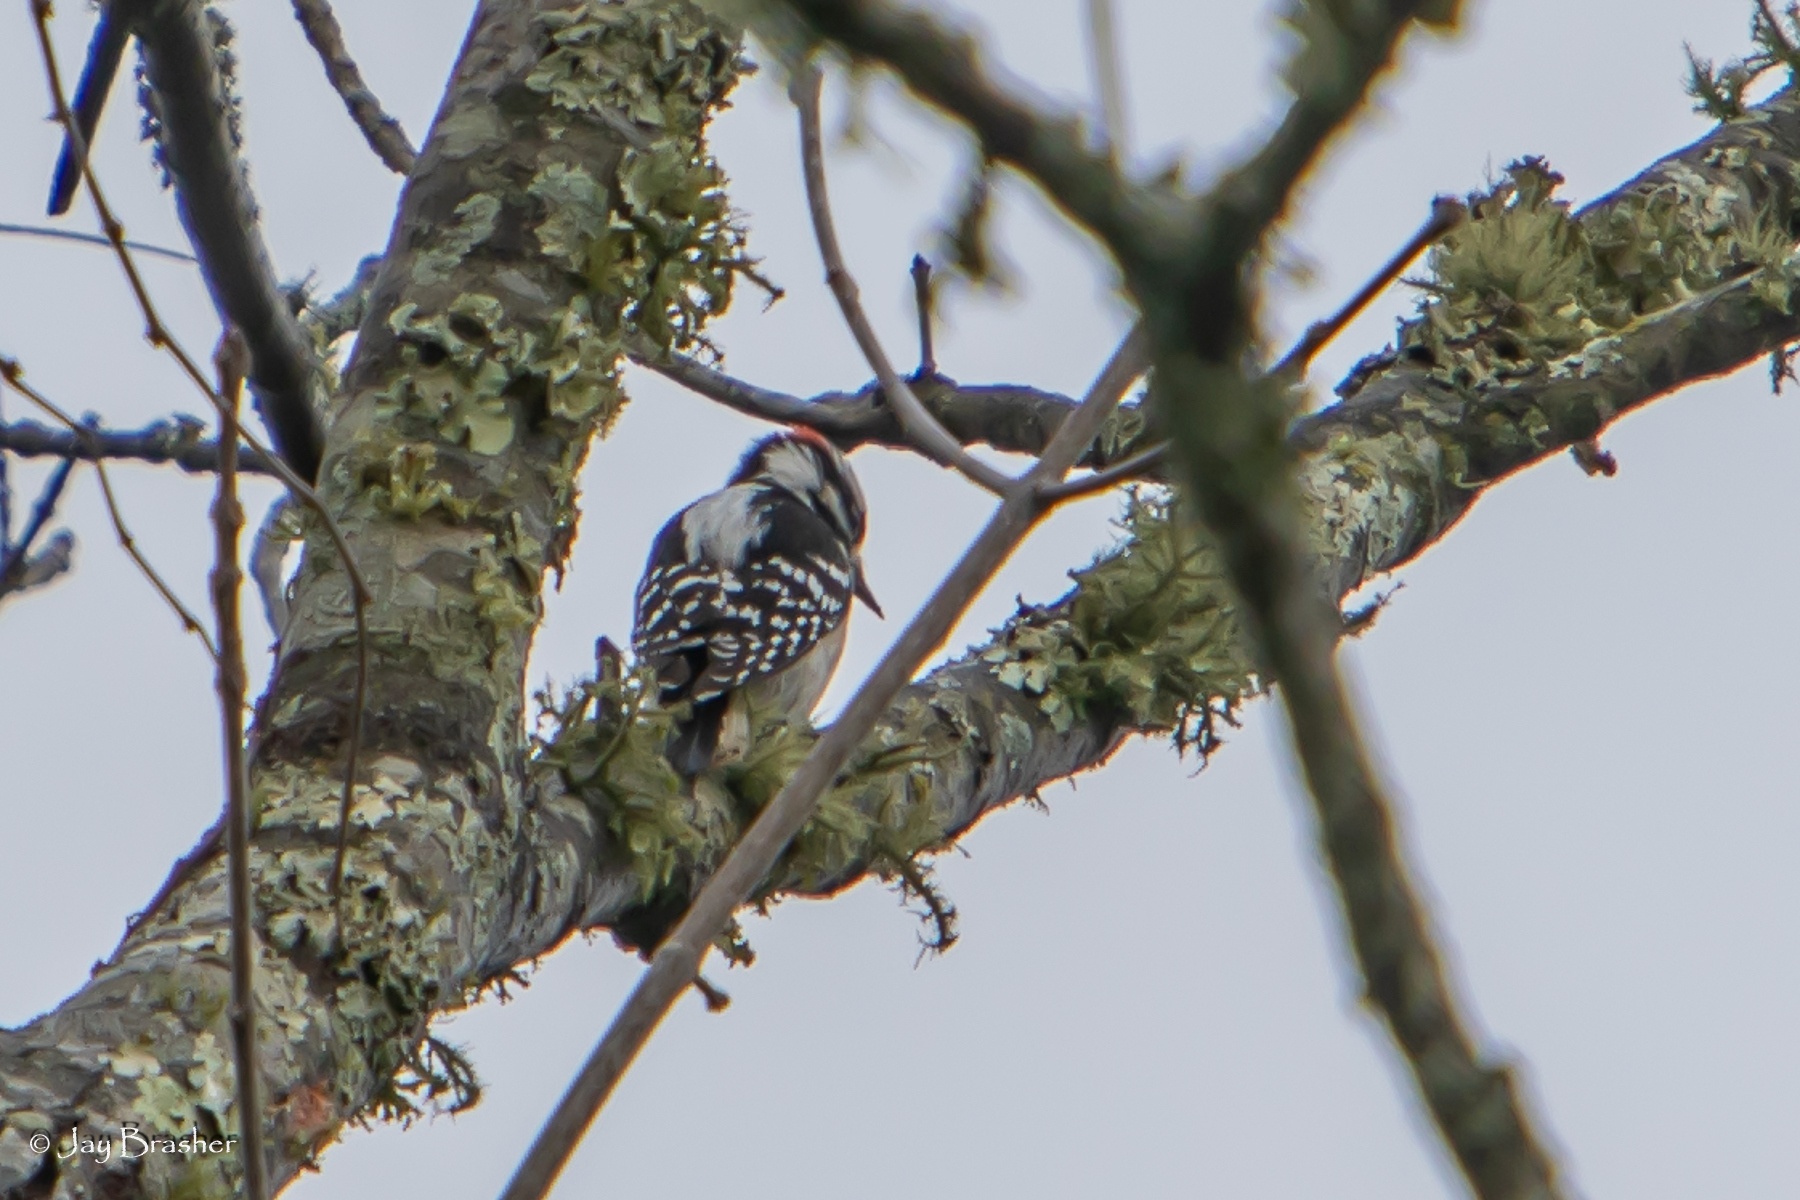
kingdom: Animalia
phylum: Chordata
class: Aves
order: Piciformes
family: Picidae
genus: Leuconotopicus
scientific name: Leuconotopicus villosus
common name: Hairy woodpecker
